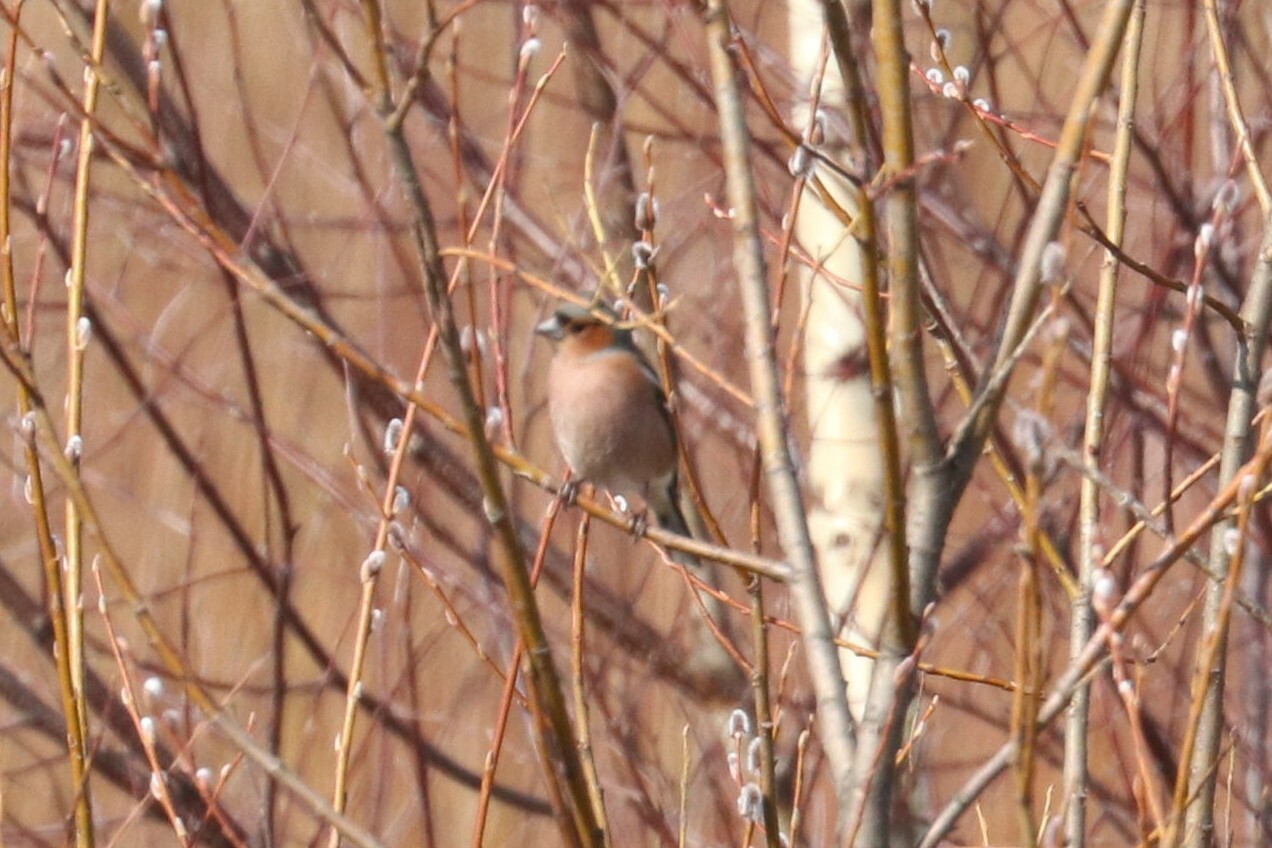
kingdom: Animalia
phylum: Chordata
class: Aves
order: Passeriformes
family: Fringillidae
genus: Fringilla
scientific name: Fringilla coelebs
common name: Common chaffinch
